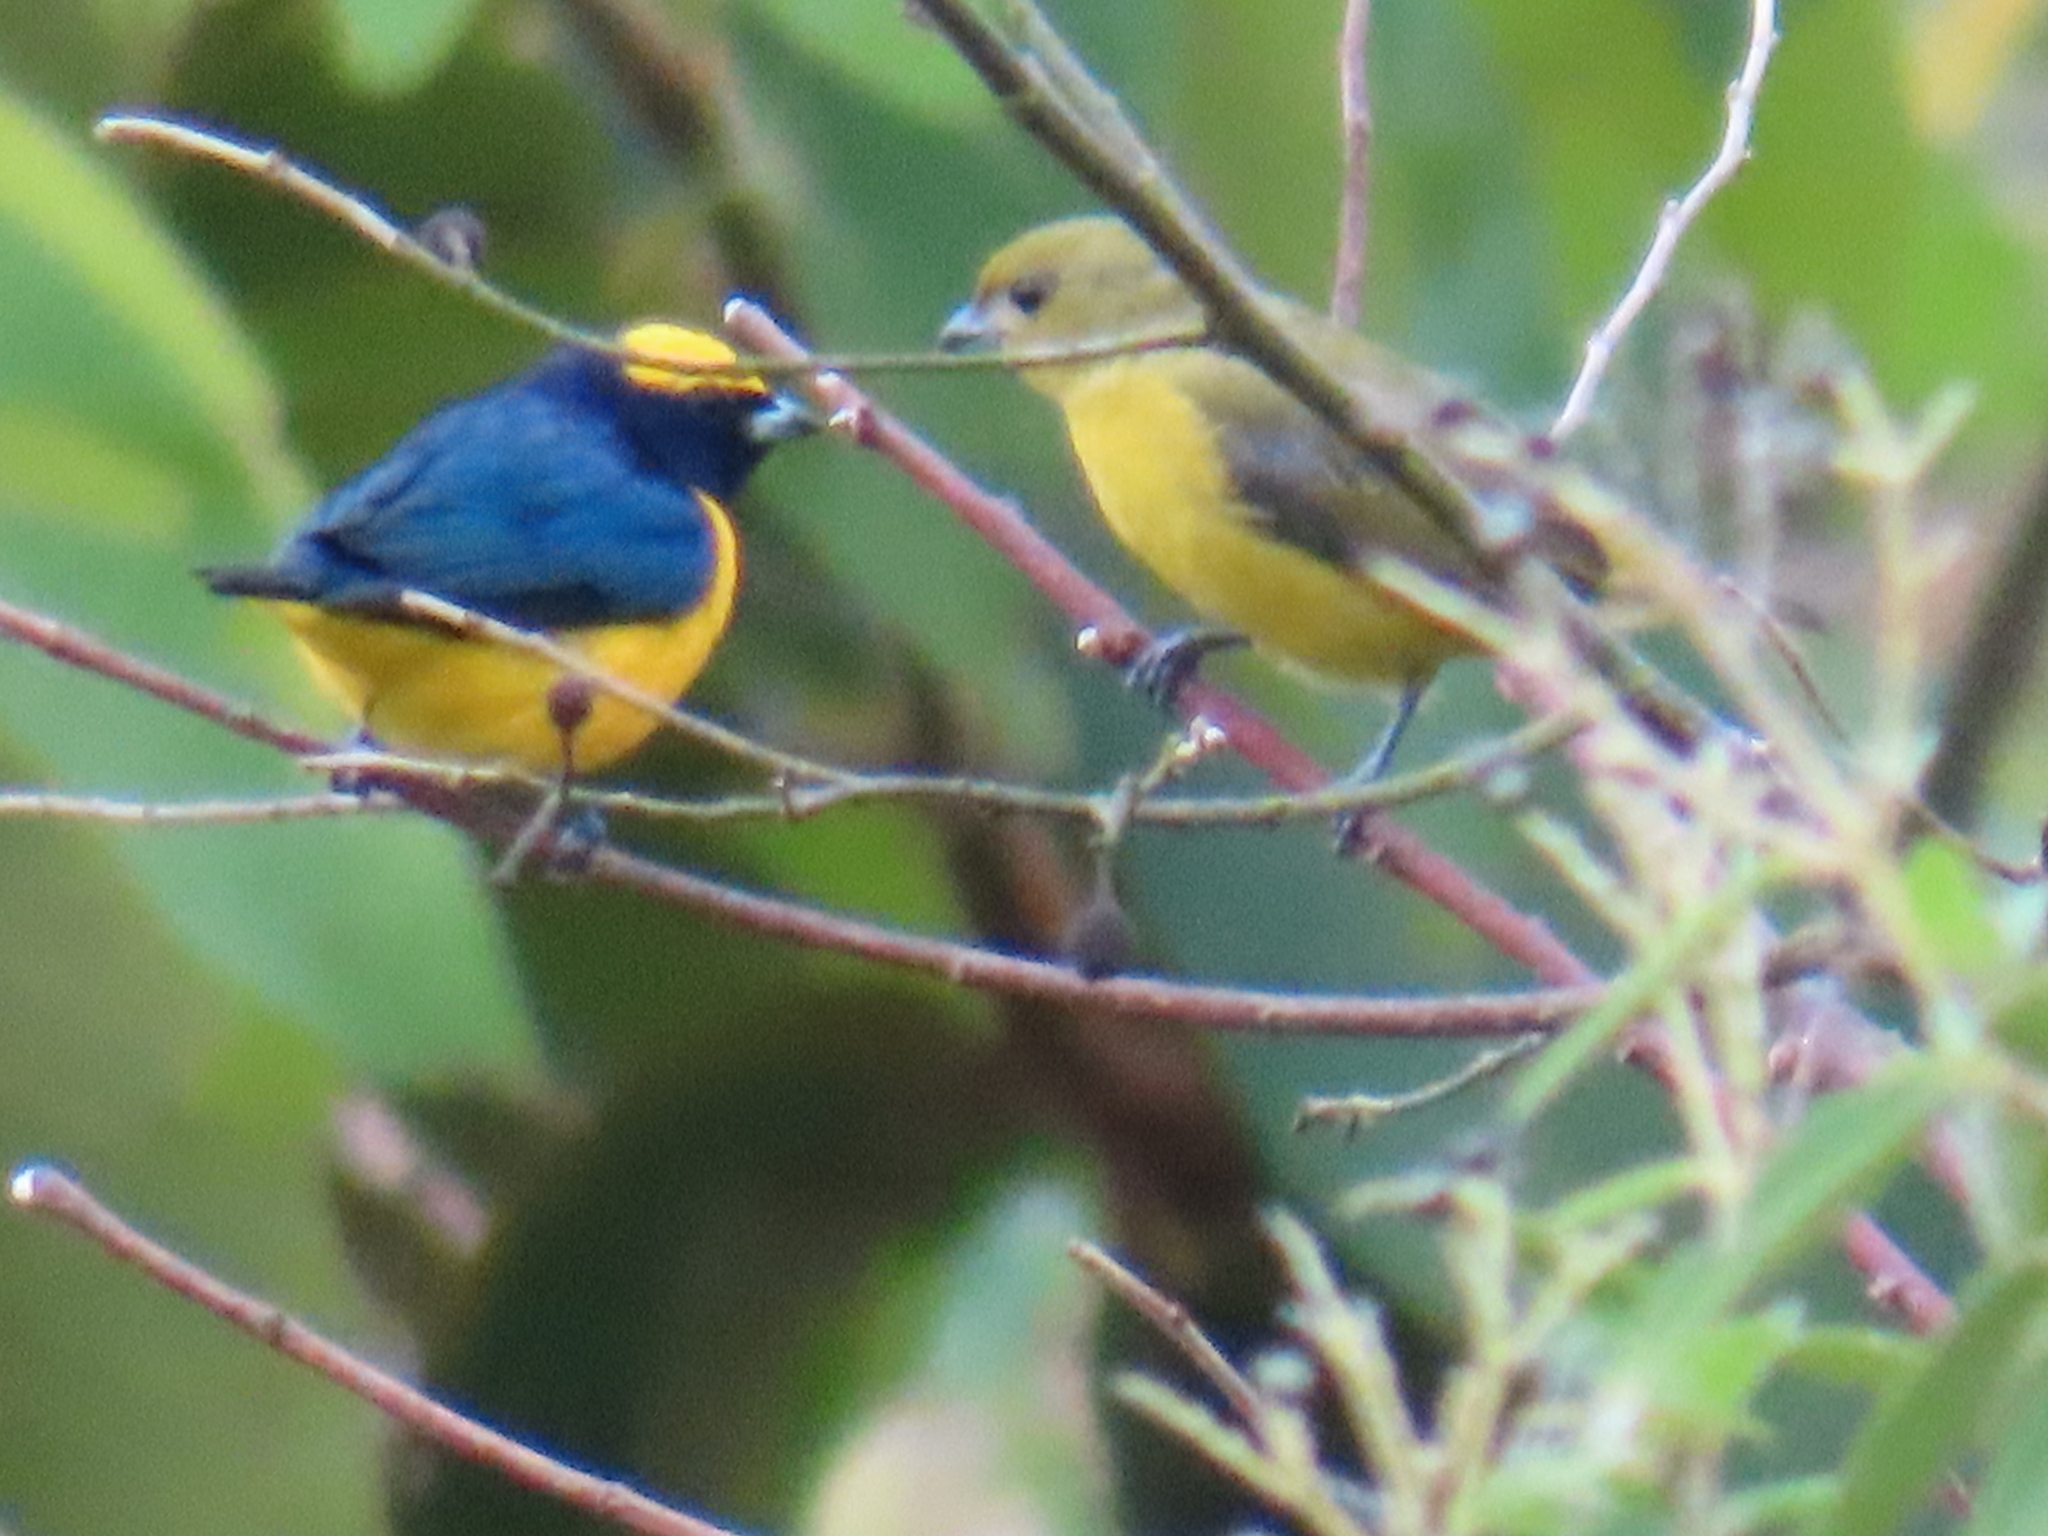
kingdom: Animalia
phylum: Chordata
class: Aves
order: Passeriformes
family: Fringillidae
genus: Euphonia
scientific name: Euphonia luteicapilla
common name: Yellow-crowned euphonia
